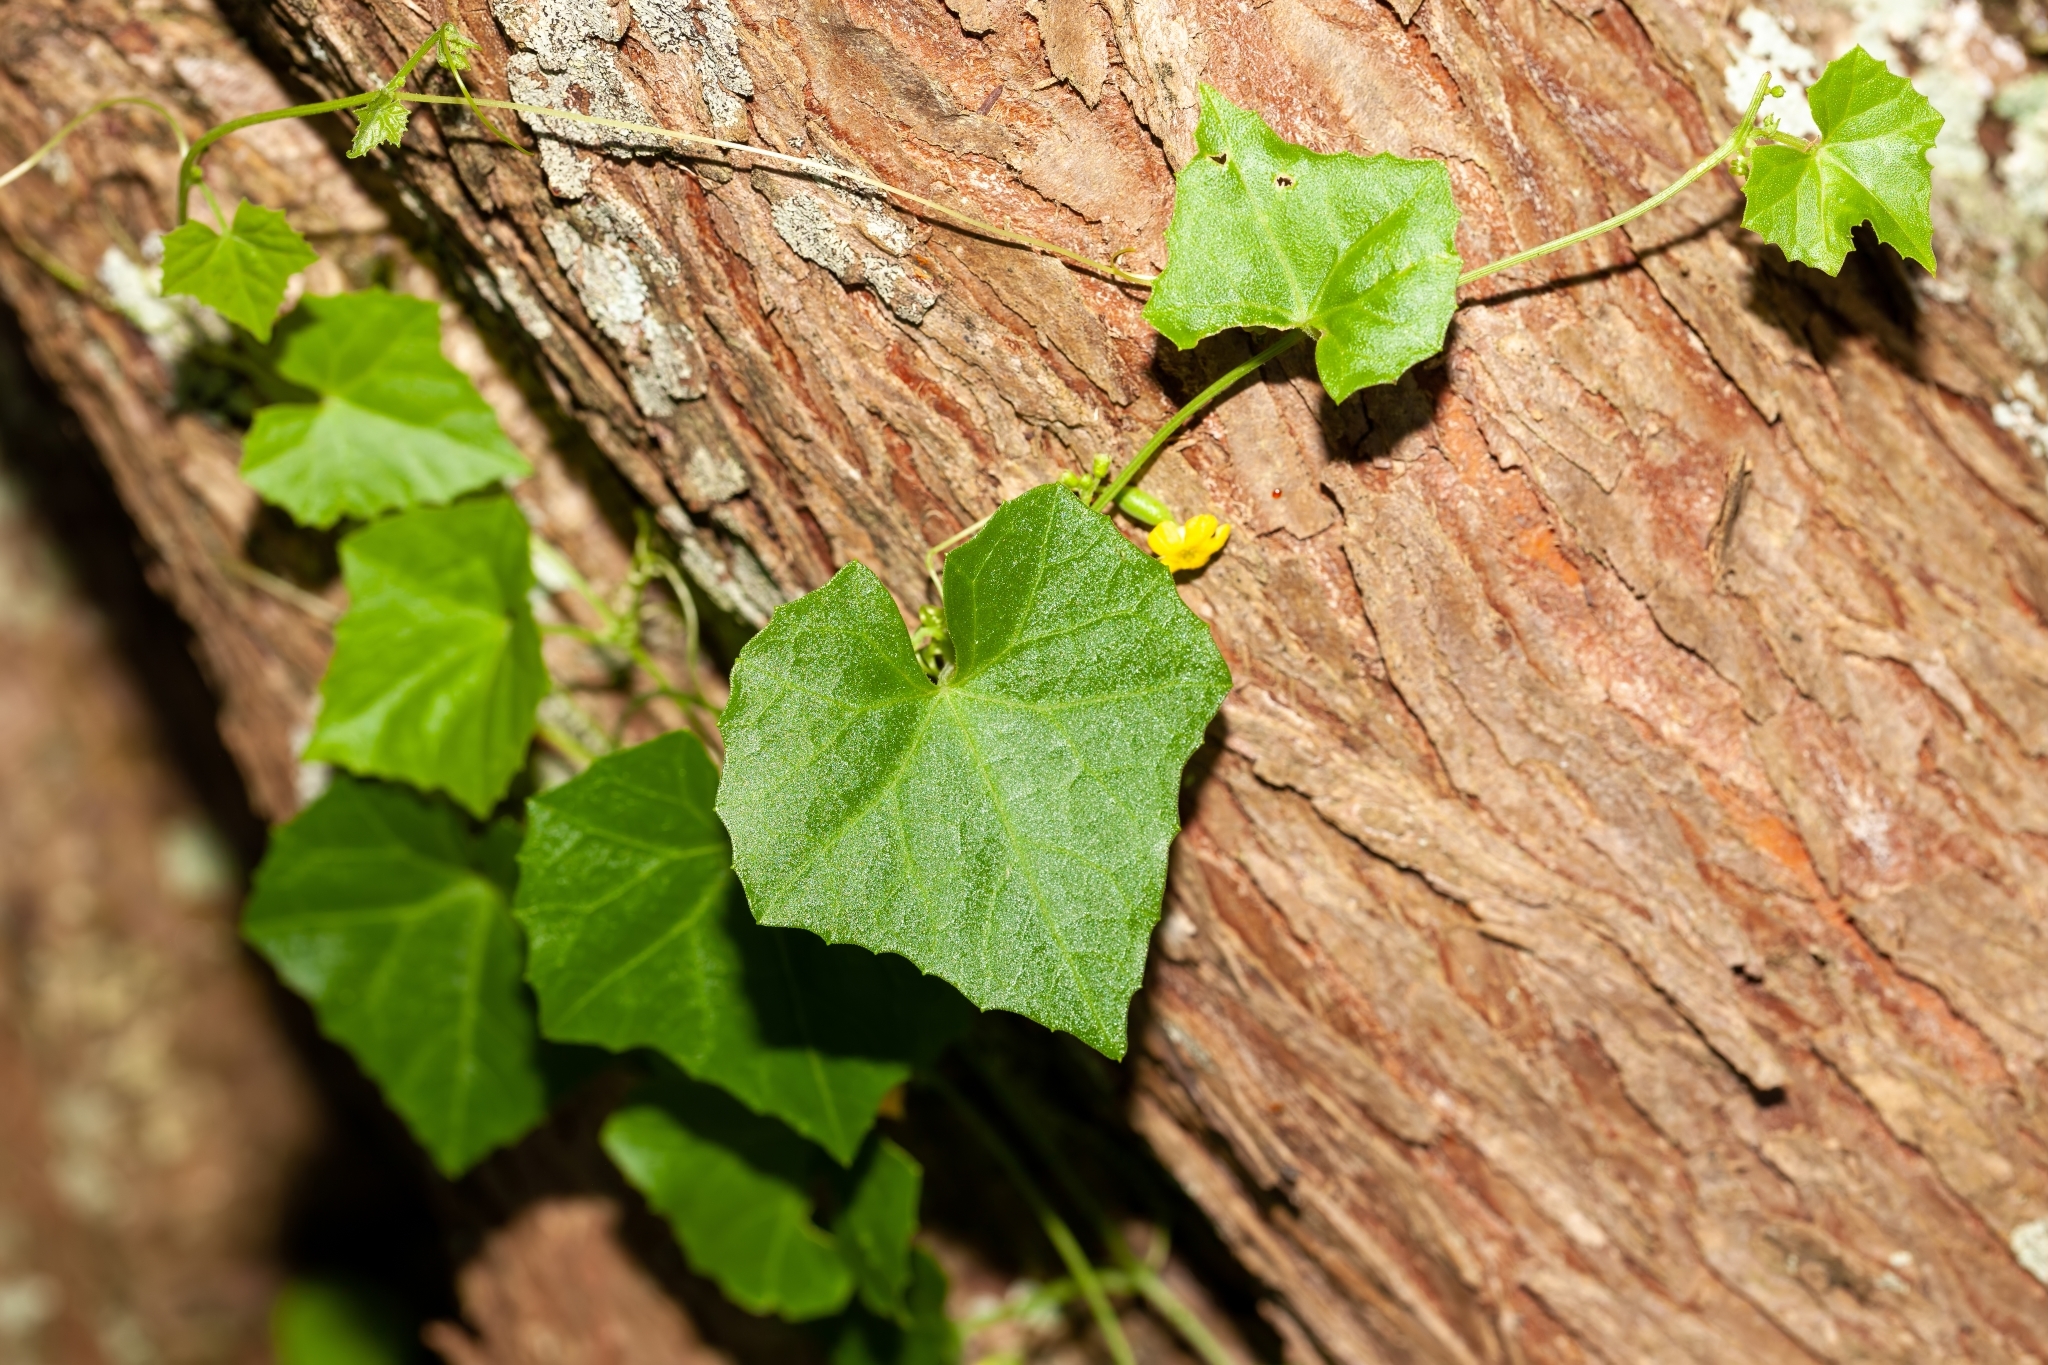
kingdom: Plantae
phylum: Tracheophyta
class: Magnoliopsida
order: Cucurbitales
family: Cucurbitaceae
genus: Melothria
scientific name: Melothria pendula
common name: Creeping-cucumber
